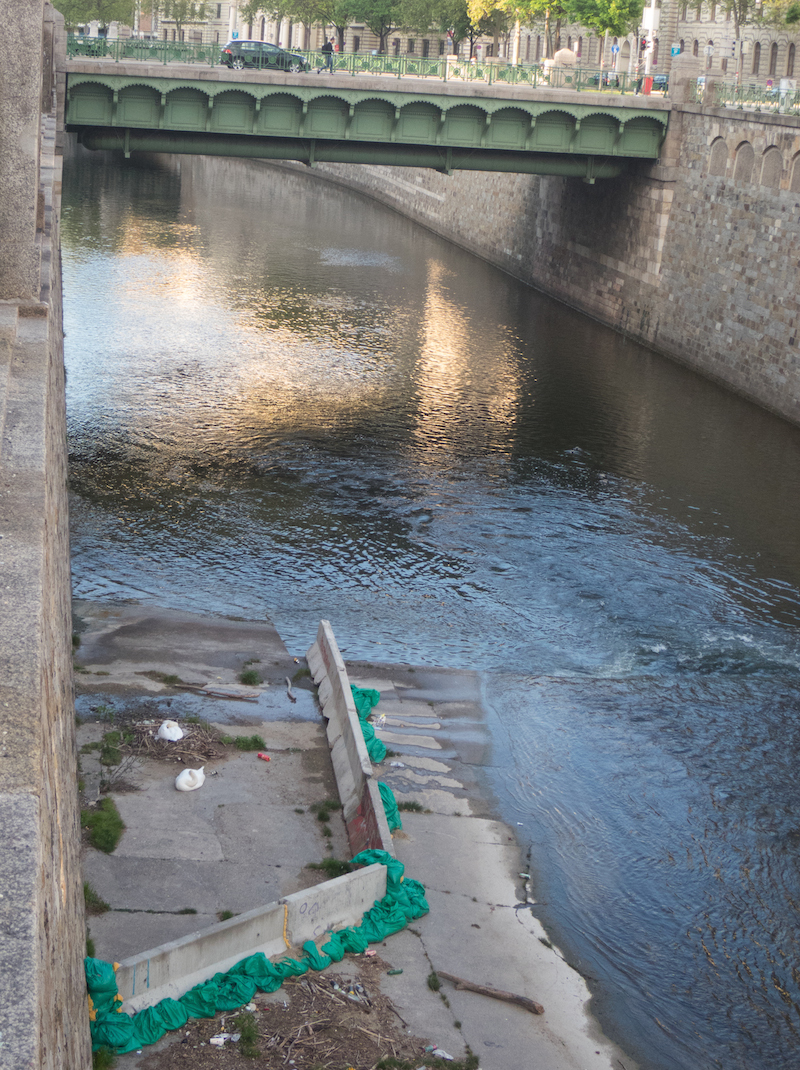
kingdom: Animalia
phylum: Chordata
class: Aves
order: Anseriformes
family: Anatidae
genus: Cygnus
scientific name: Cygnus olor
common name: Mute swan
